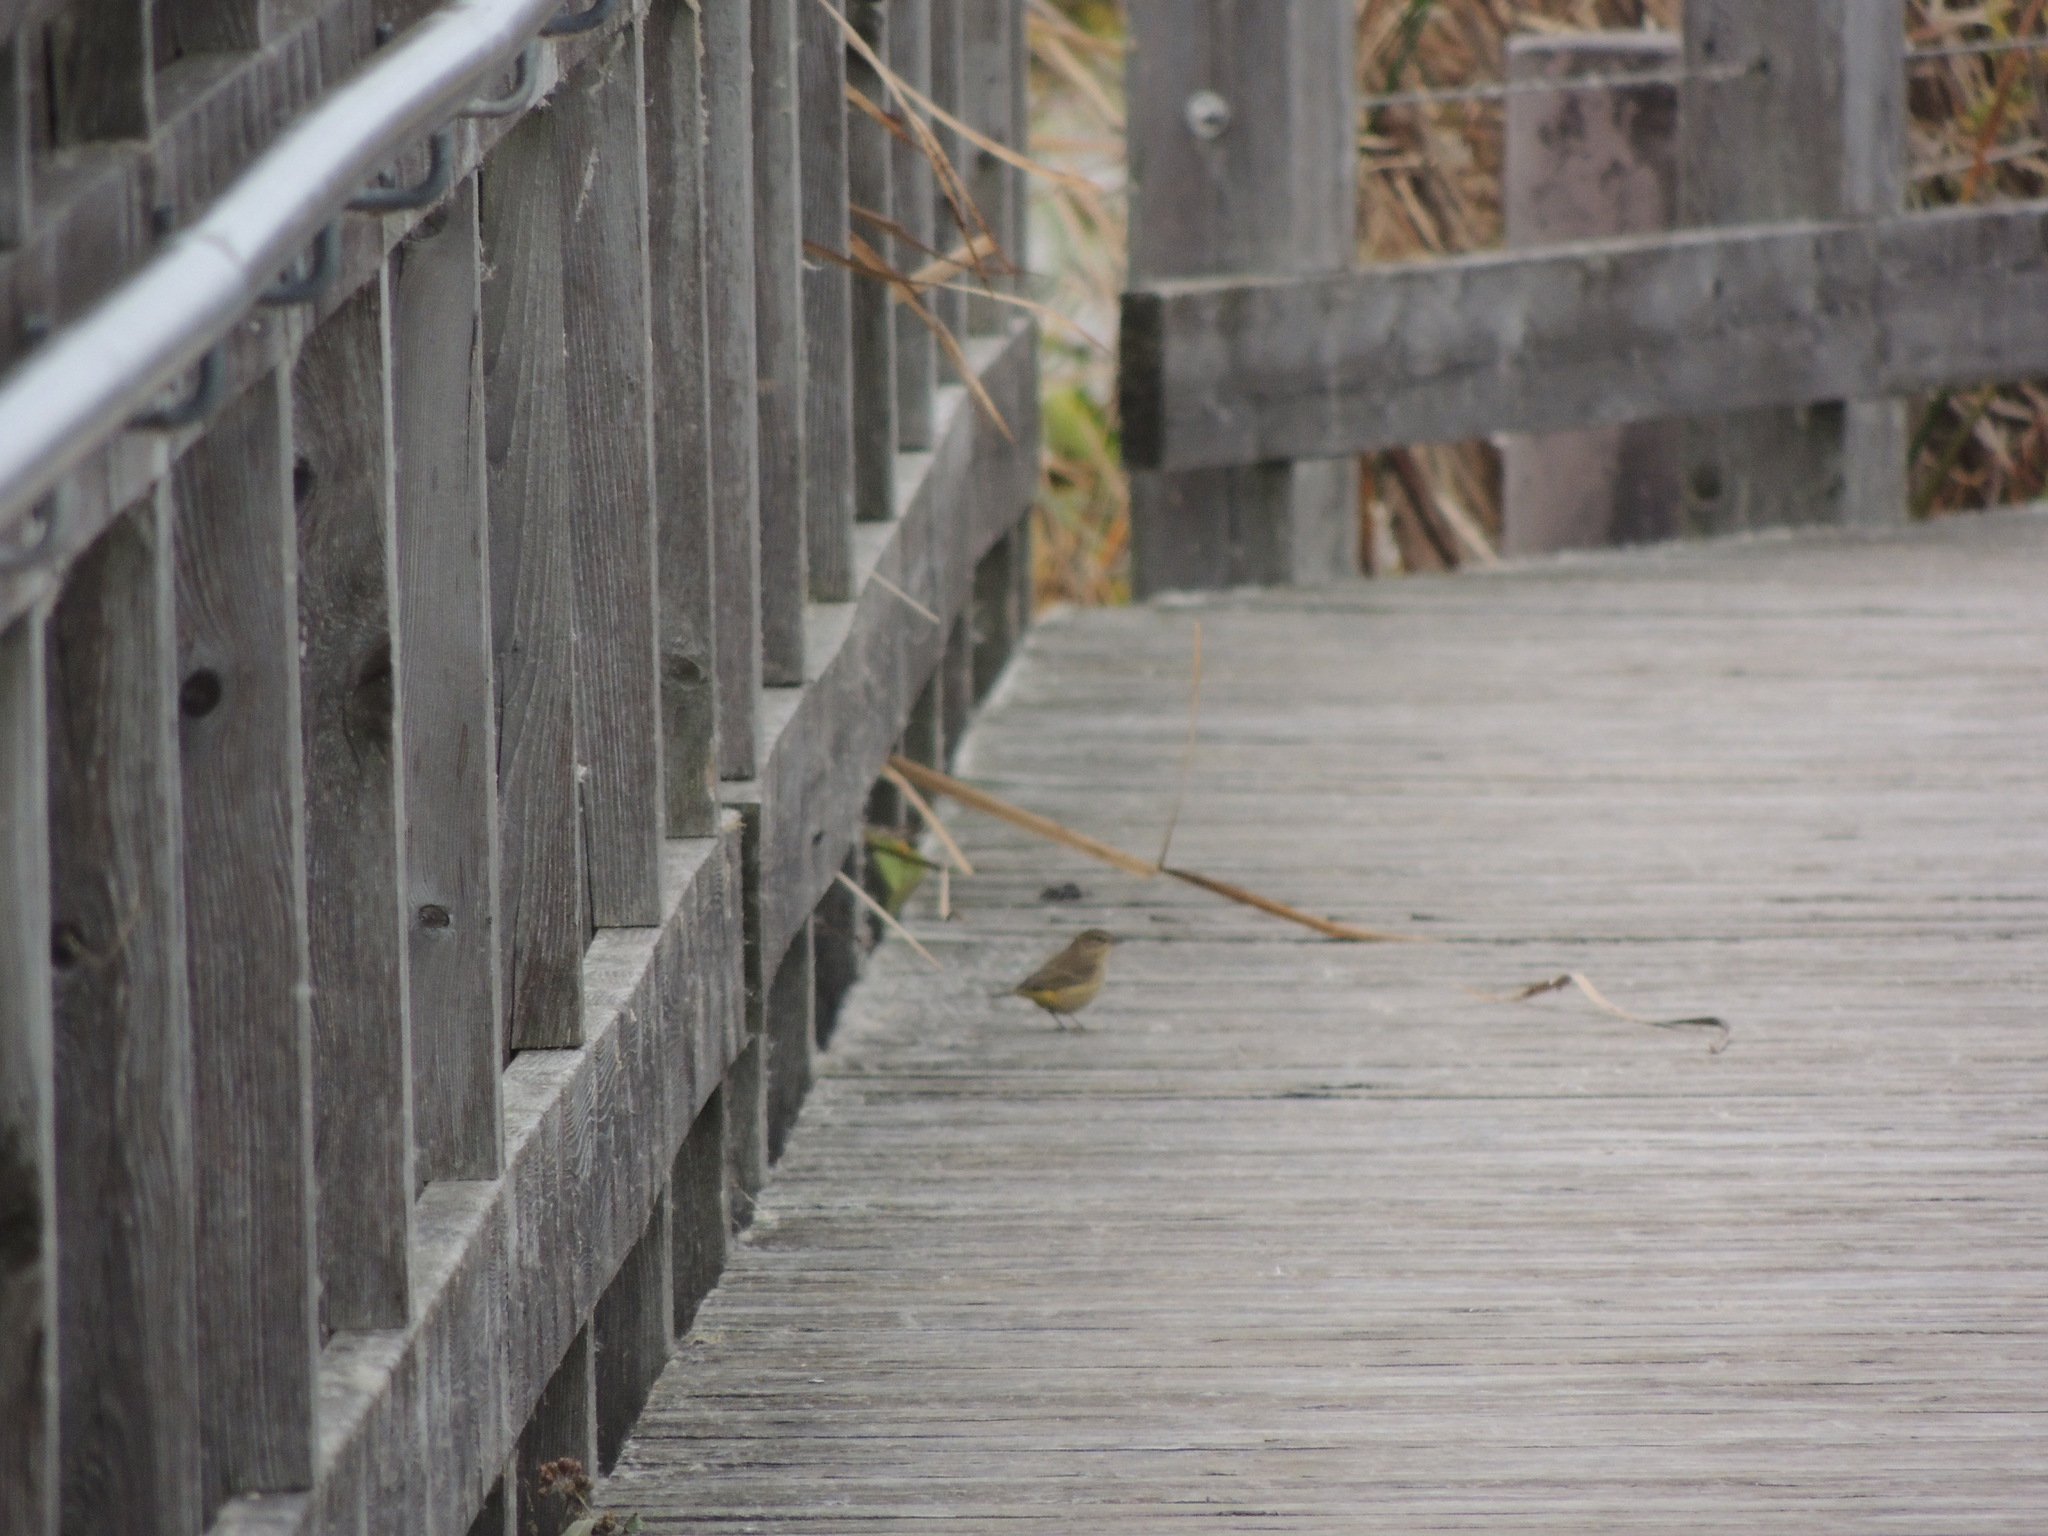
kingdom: Animalia
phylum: Chordata
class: Aves
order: Passeriformes
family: Parulidae
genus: Setophaga
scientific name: Setophaga palmarum
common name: Palm warbler
